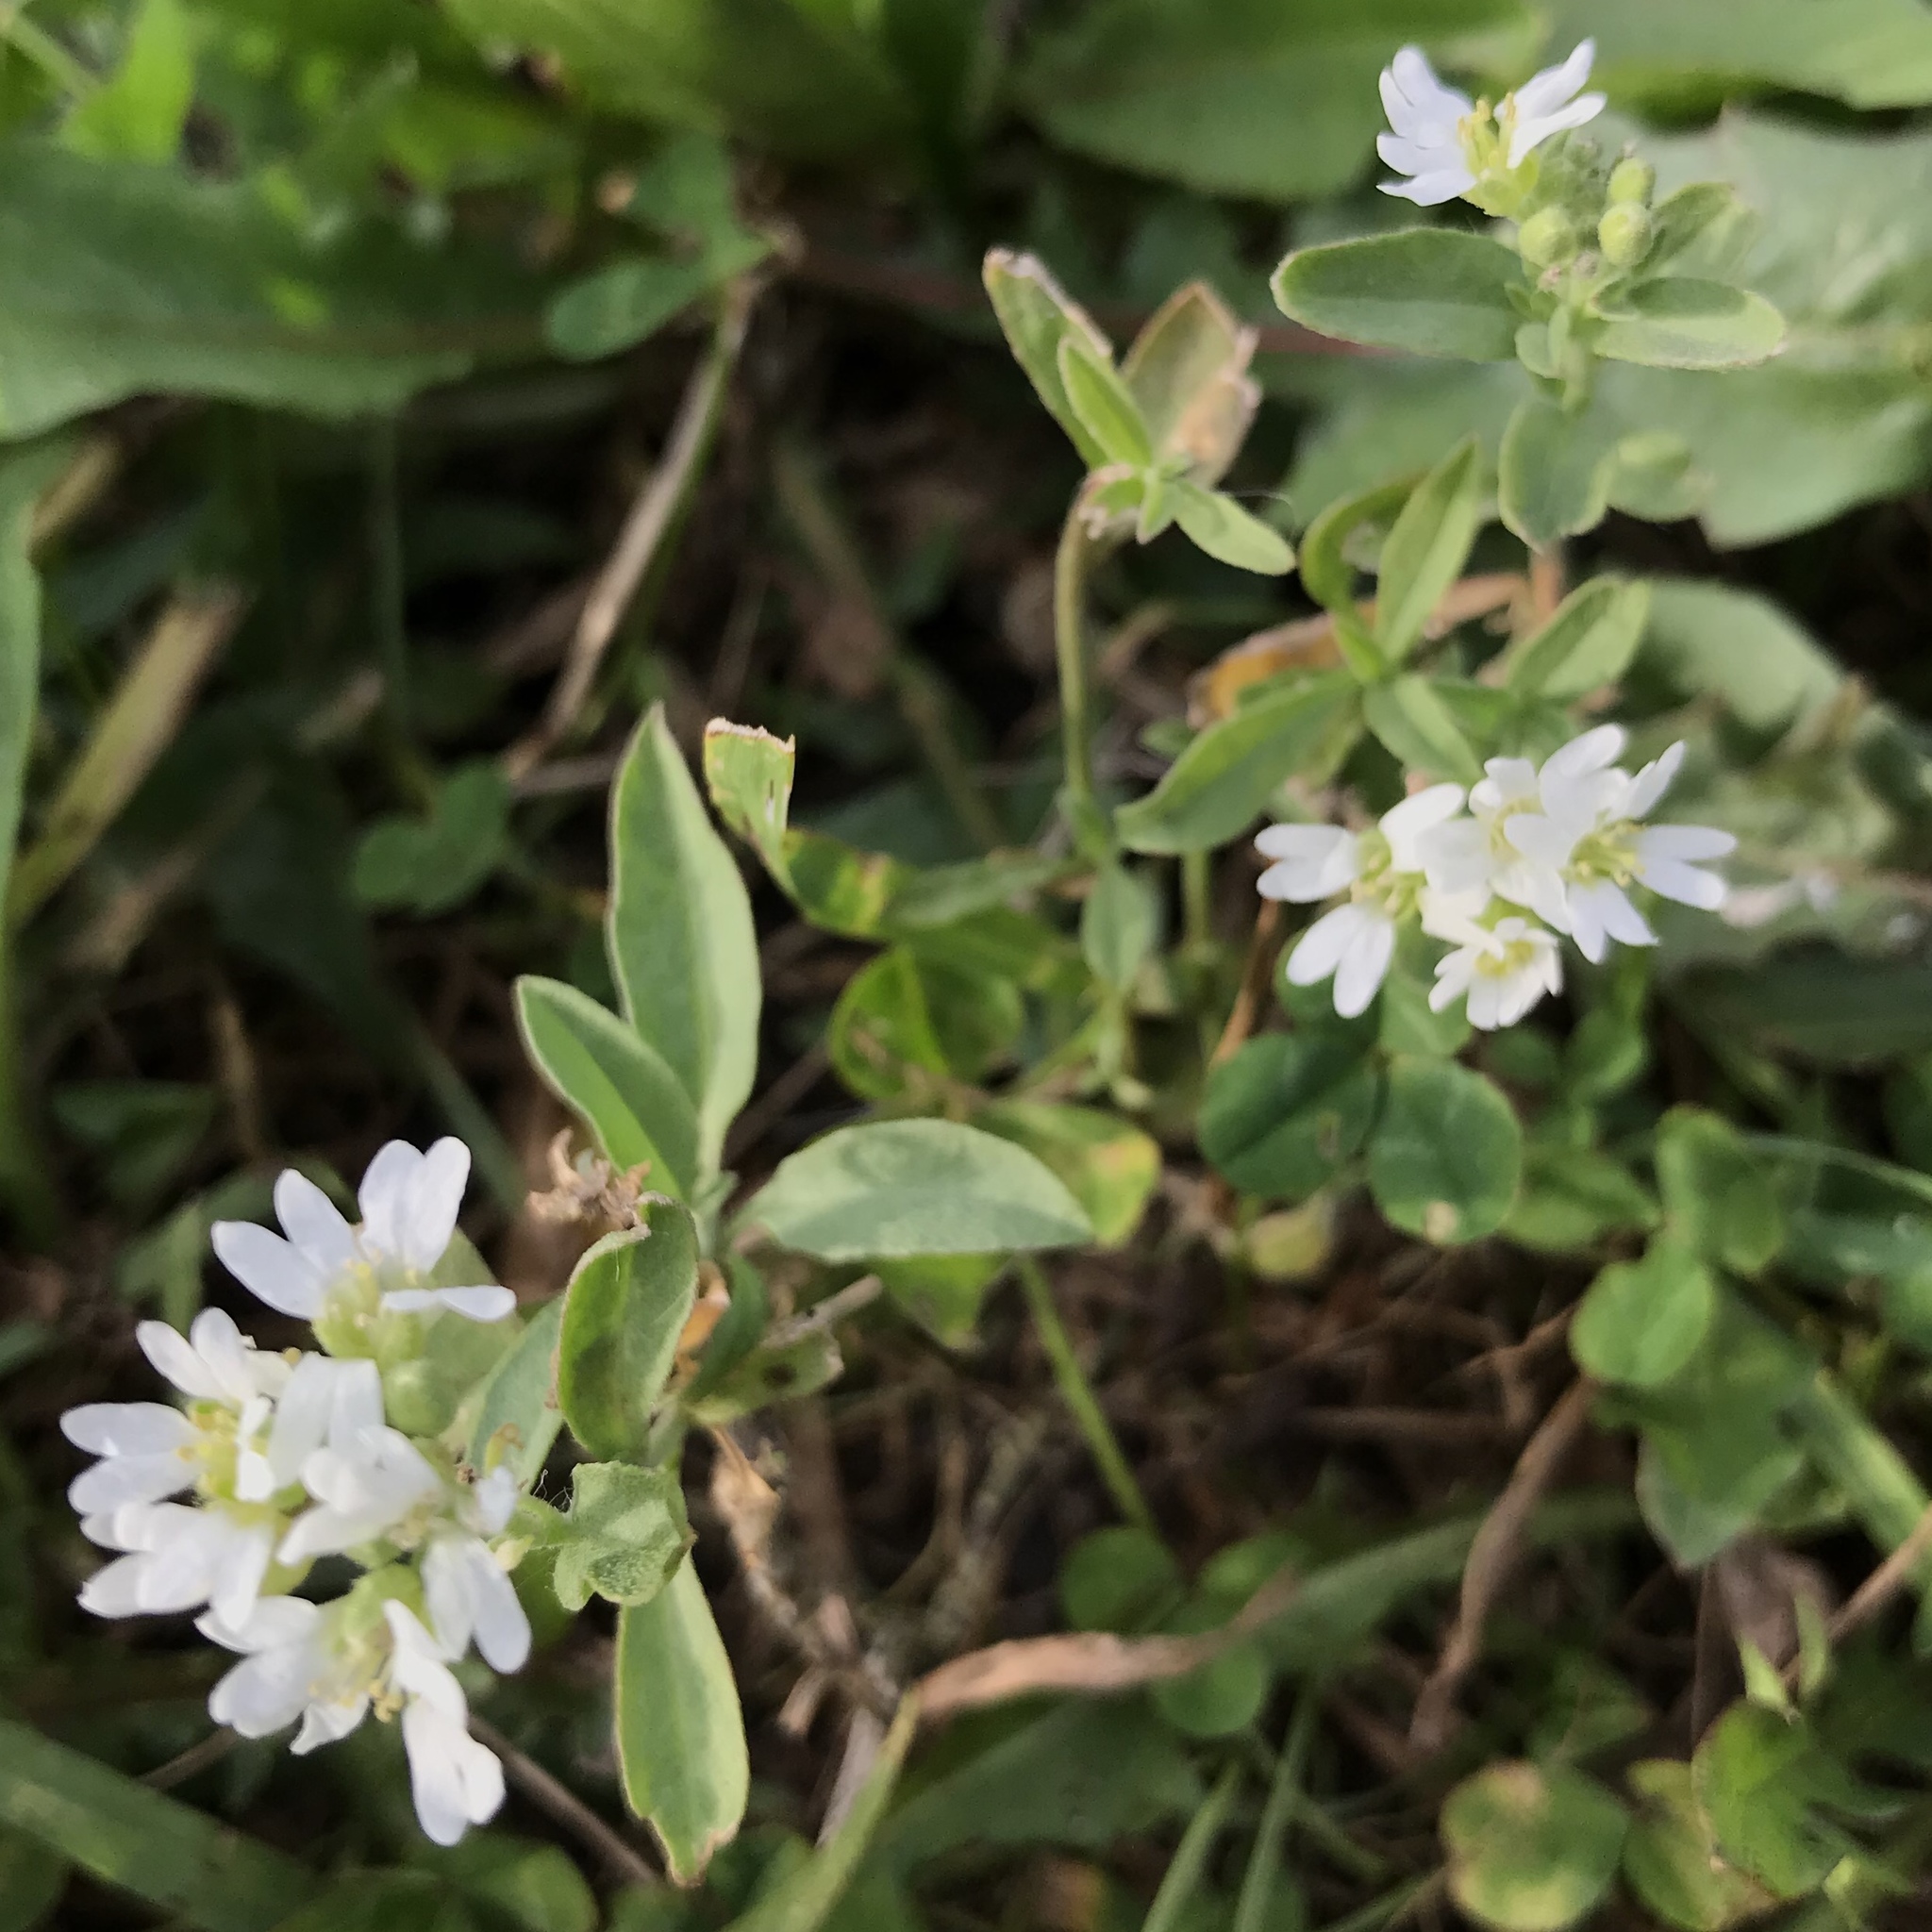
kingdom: Plantae
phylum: Tracheophyta
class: Magnoliopsida
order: Brassicales
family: Brassicaceae
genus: Berteroa
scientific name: Berteroa incana
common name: Hoary alison
